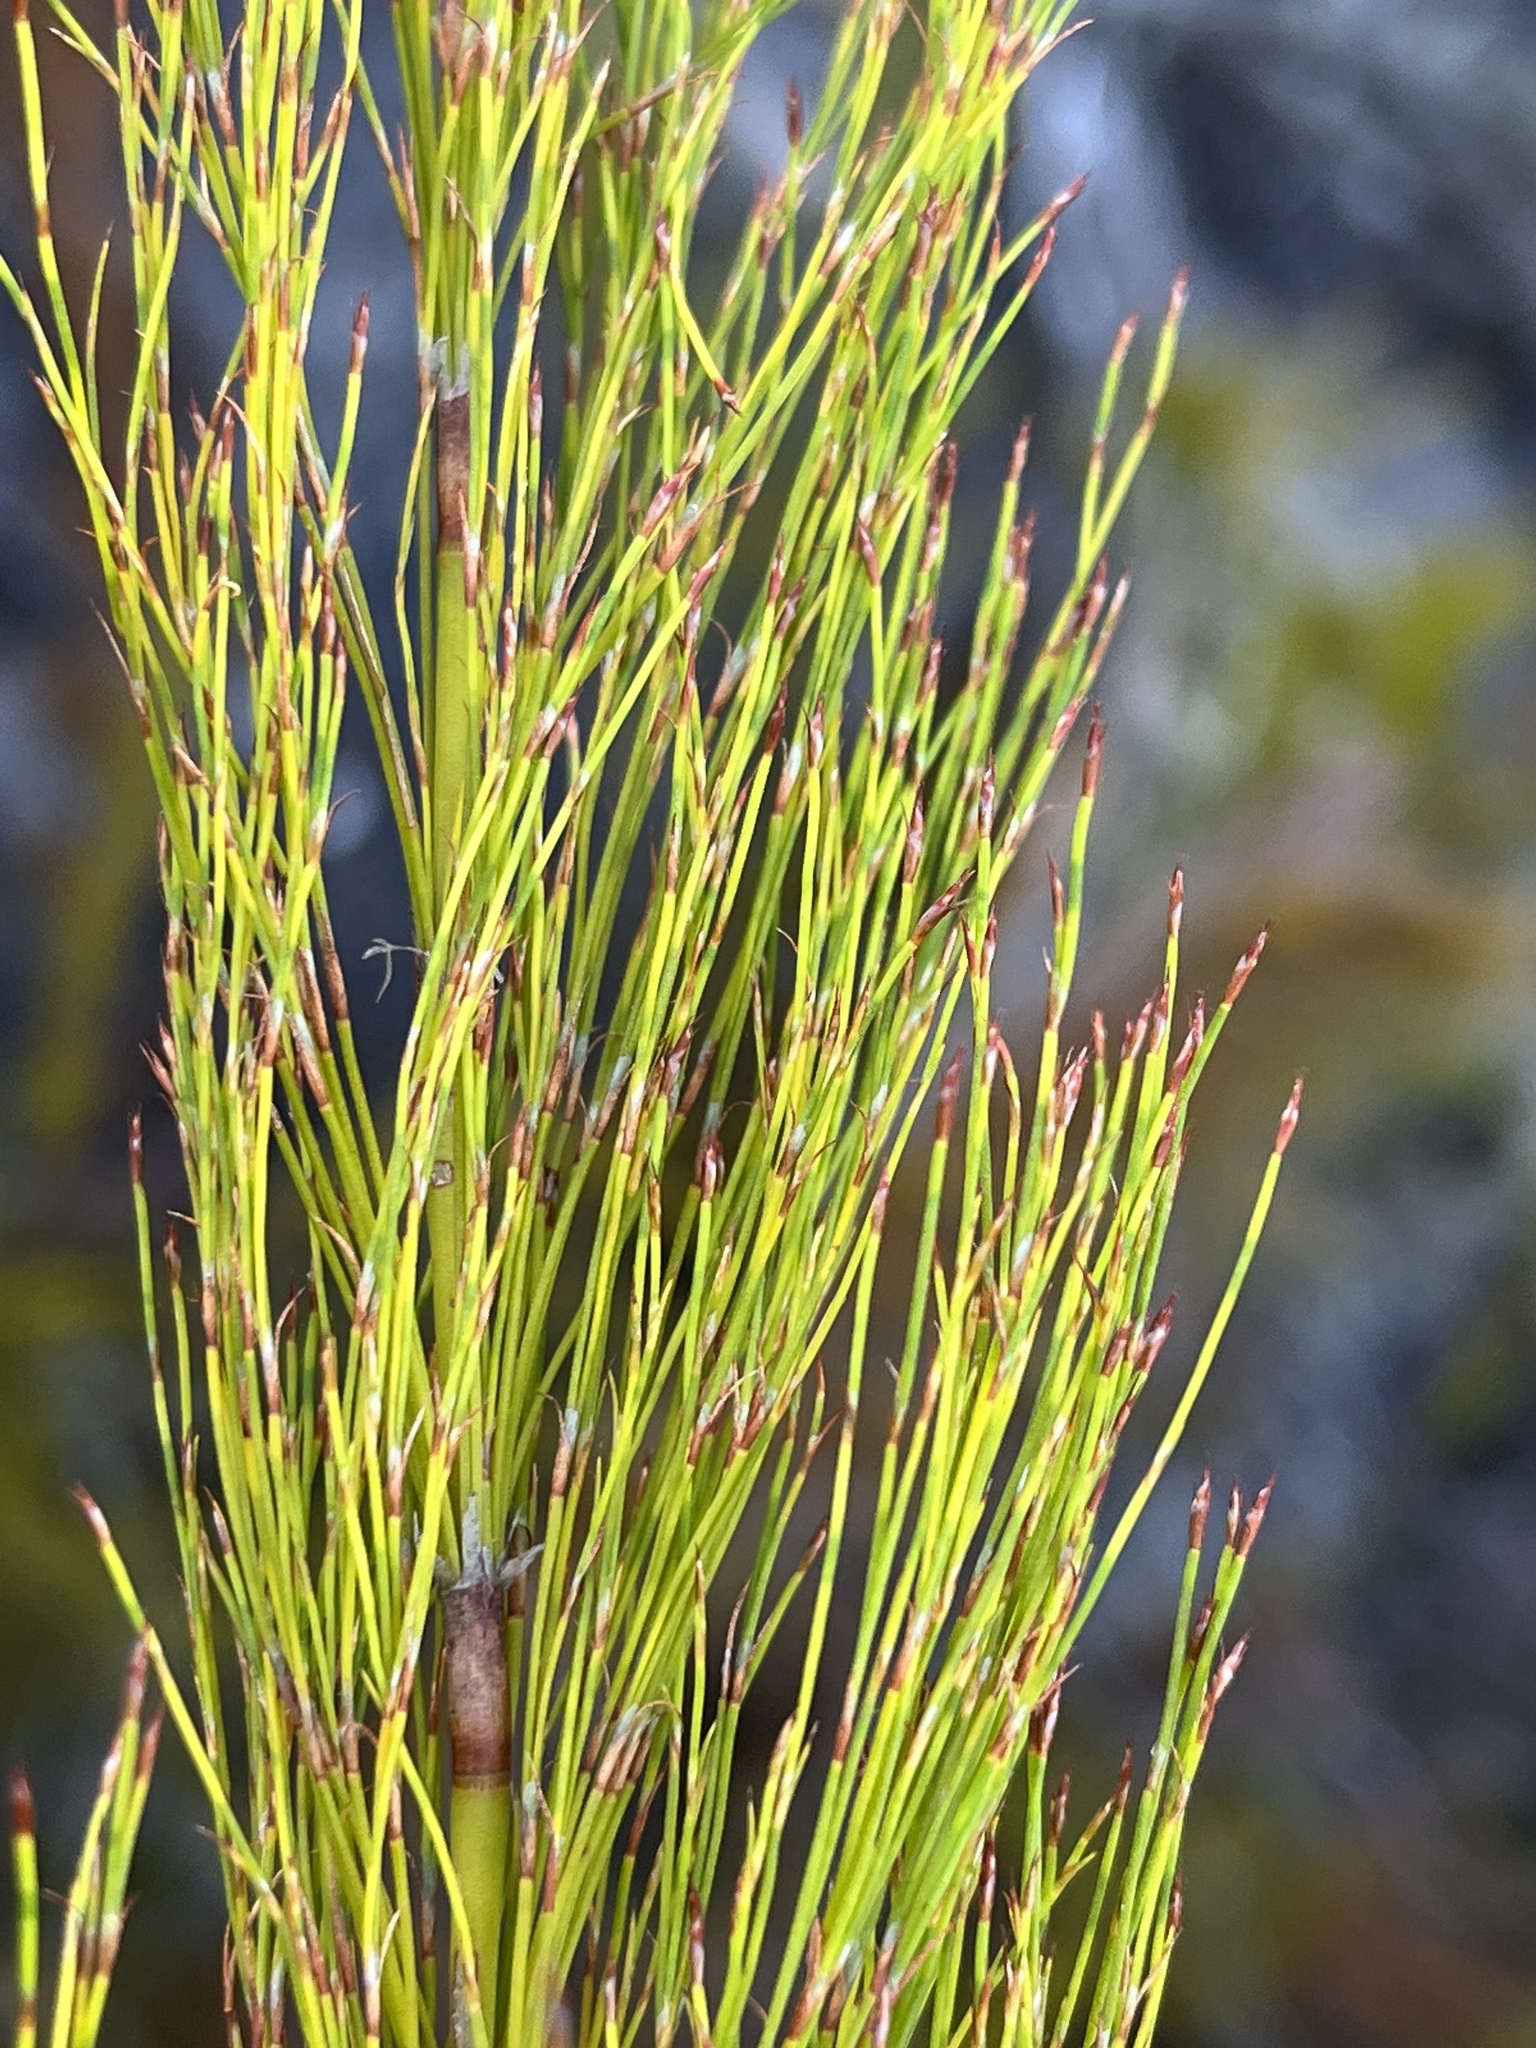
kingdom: Plantae
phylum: Tracheophyta
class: Liliopsida
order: Poales
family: Restionaceae
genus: Restio
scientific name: Restio leptoclados
